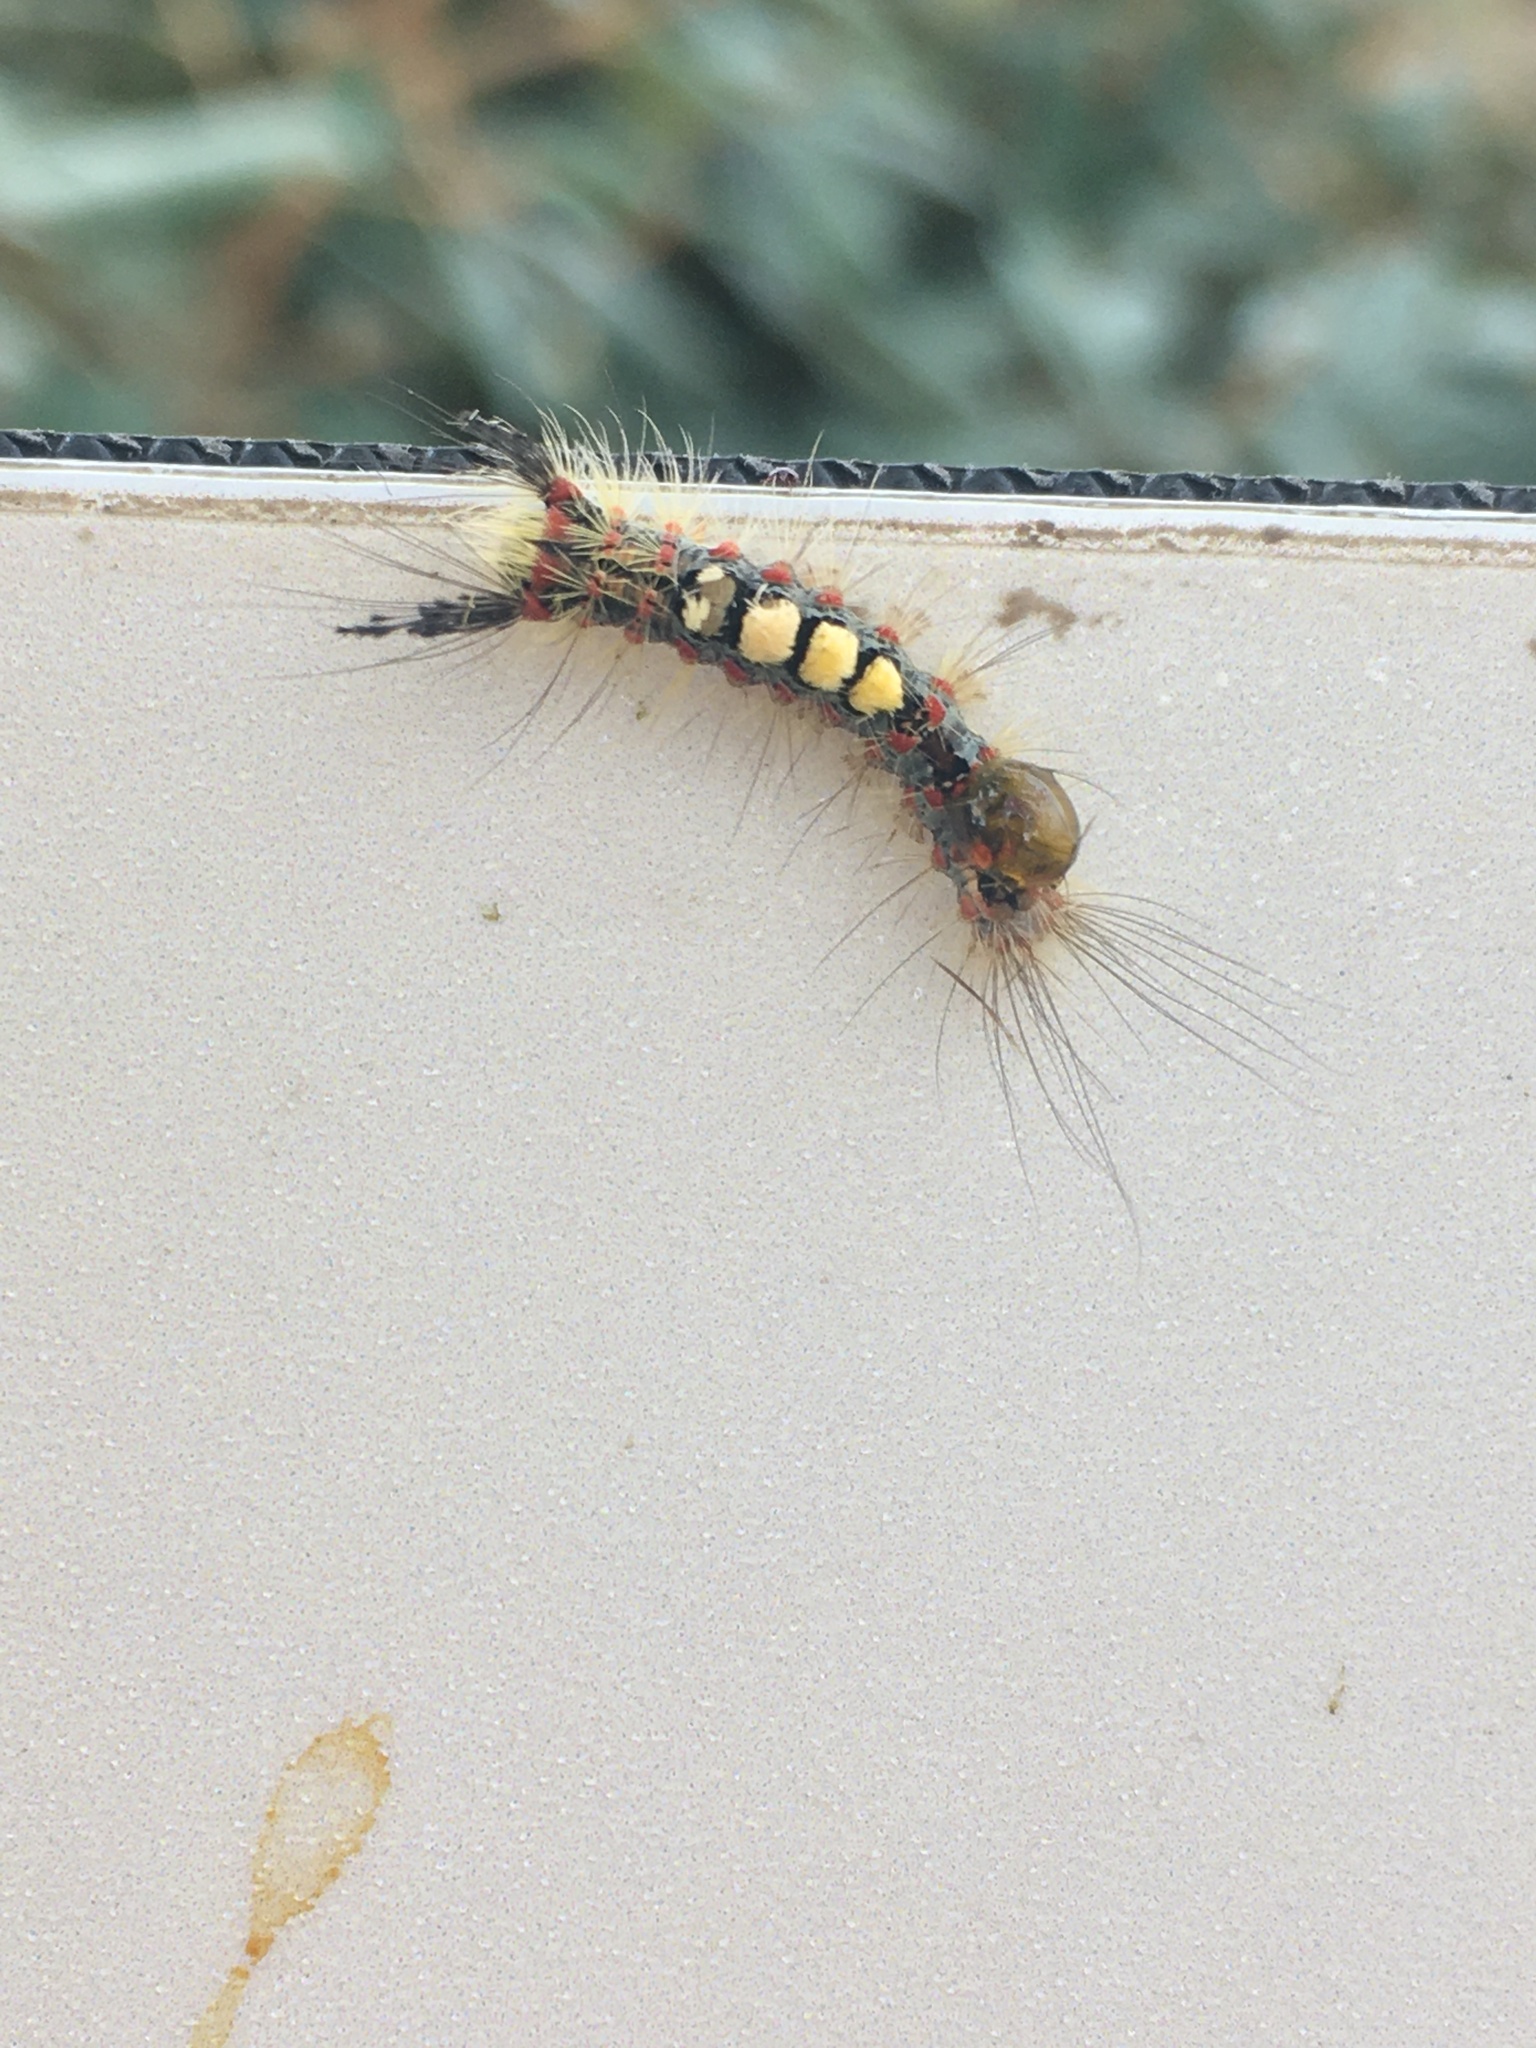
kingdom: Animalia
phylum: Arthropoda
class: Insecta
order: Lepidoptera
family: Erebidae
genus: Orgyia
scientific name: Orgyia antiqua
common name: Vapourer
